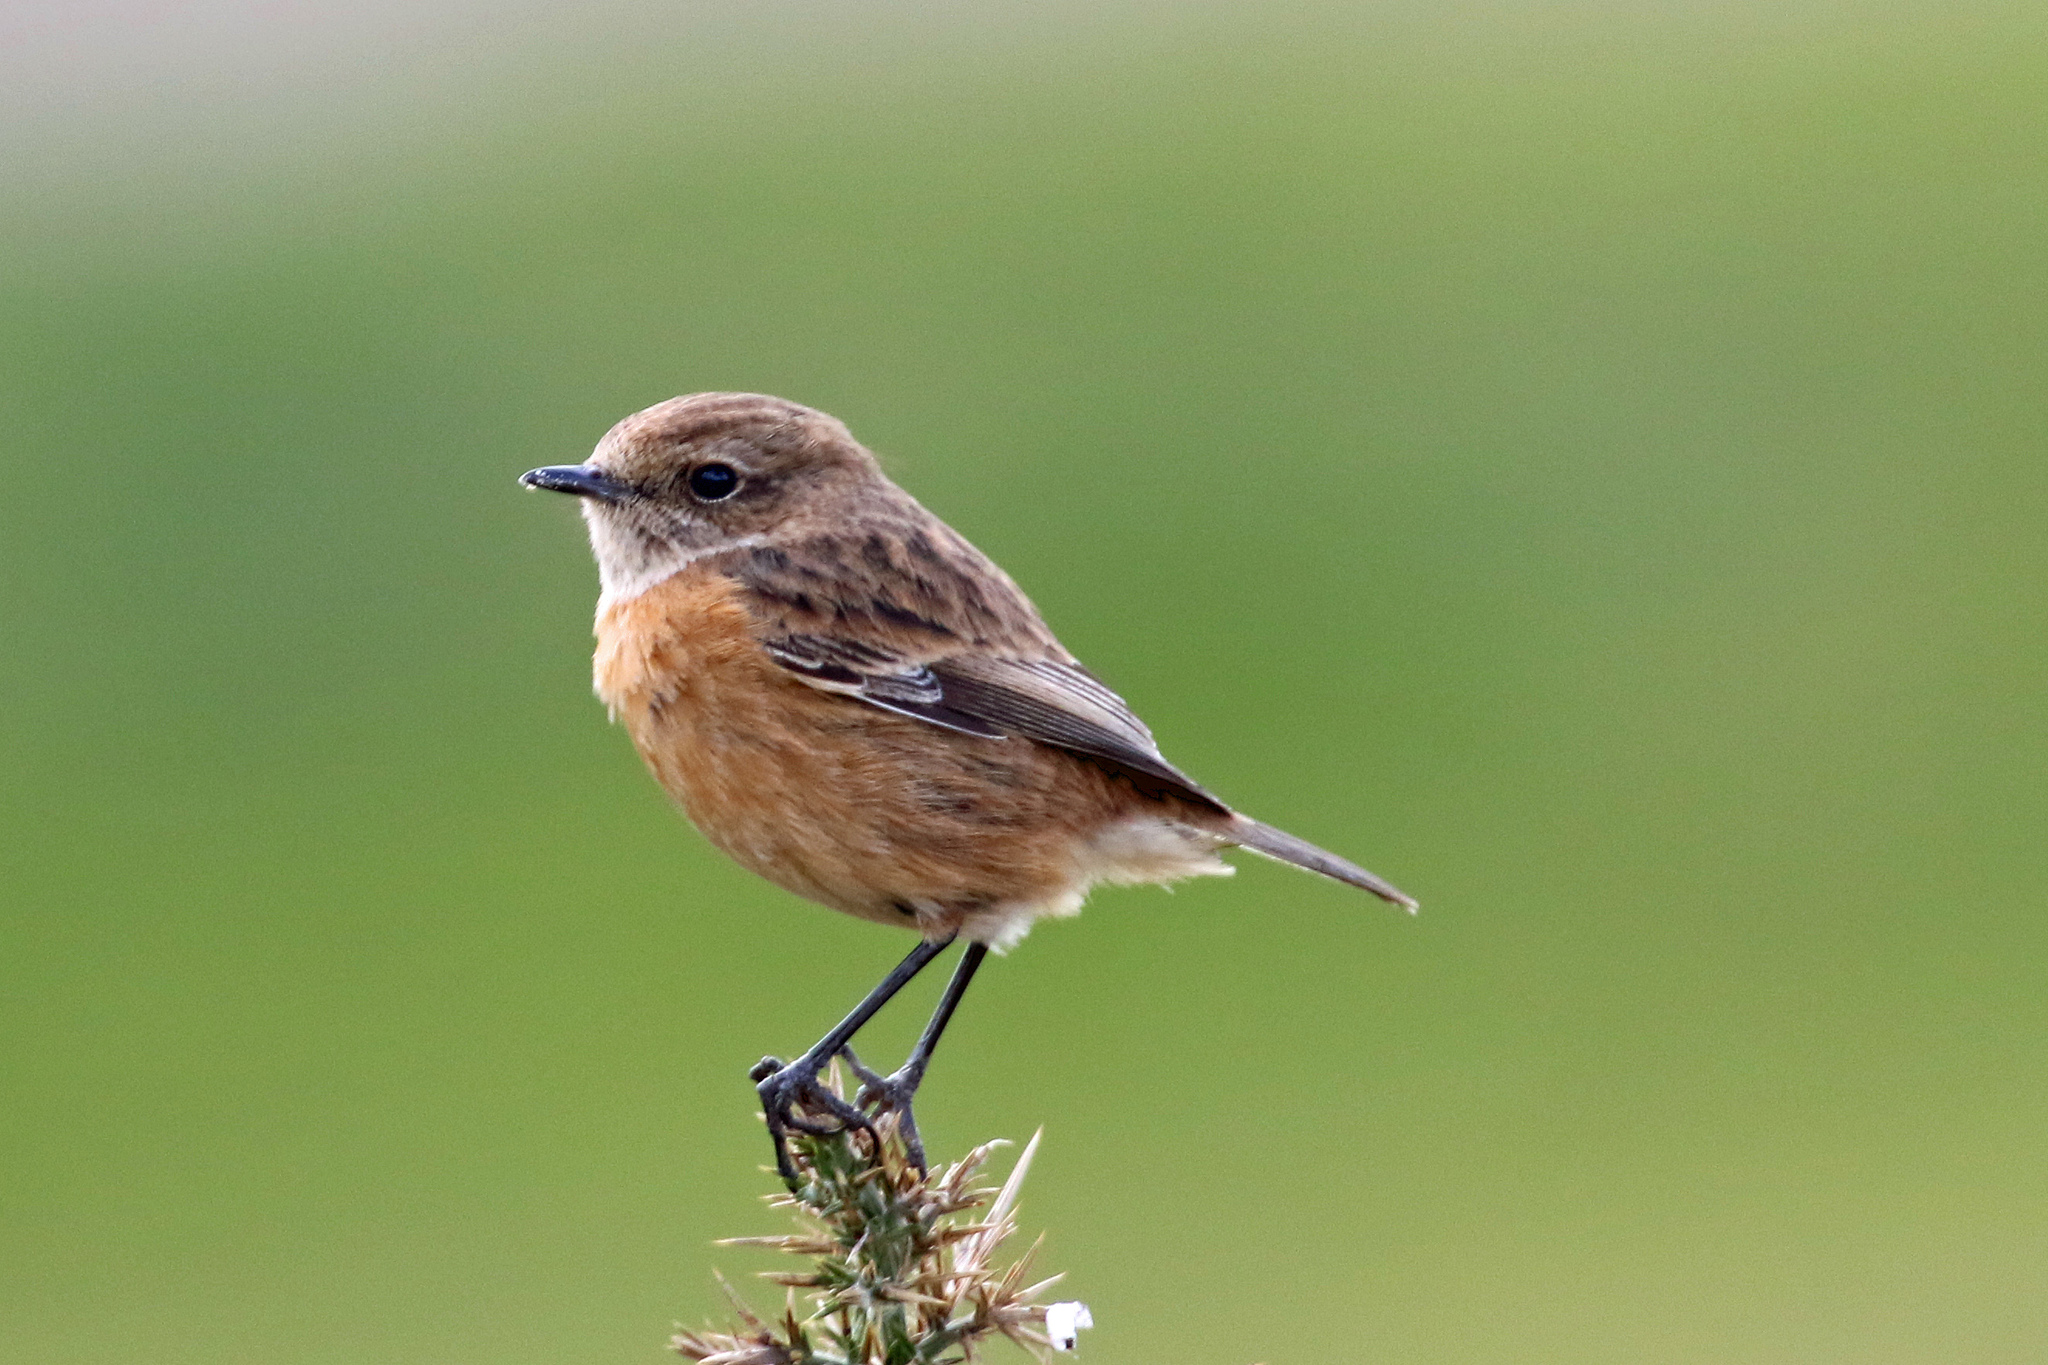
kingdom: Animalia
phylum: Chordata
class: Aves
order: Passeriformes
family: Muscicapidae
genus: Saxicola
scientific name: Saxicola rubicola
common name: European stonechat
